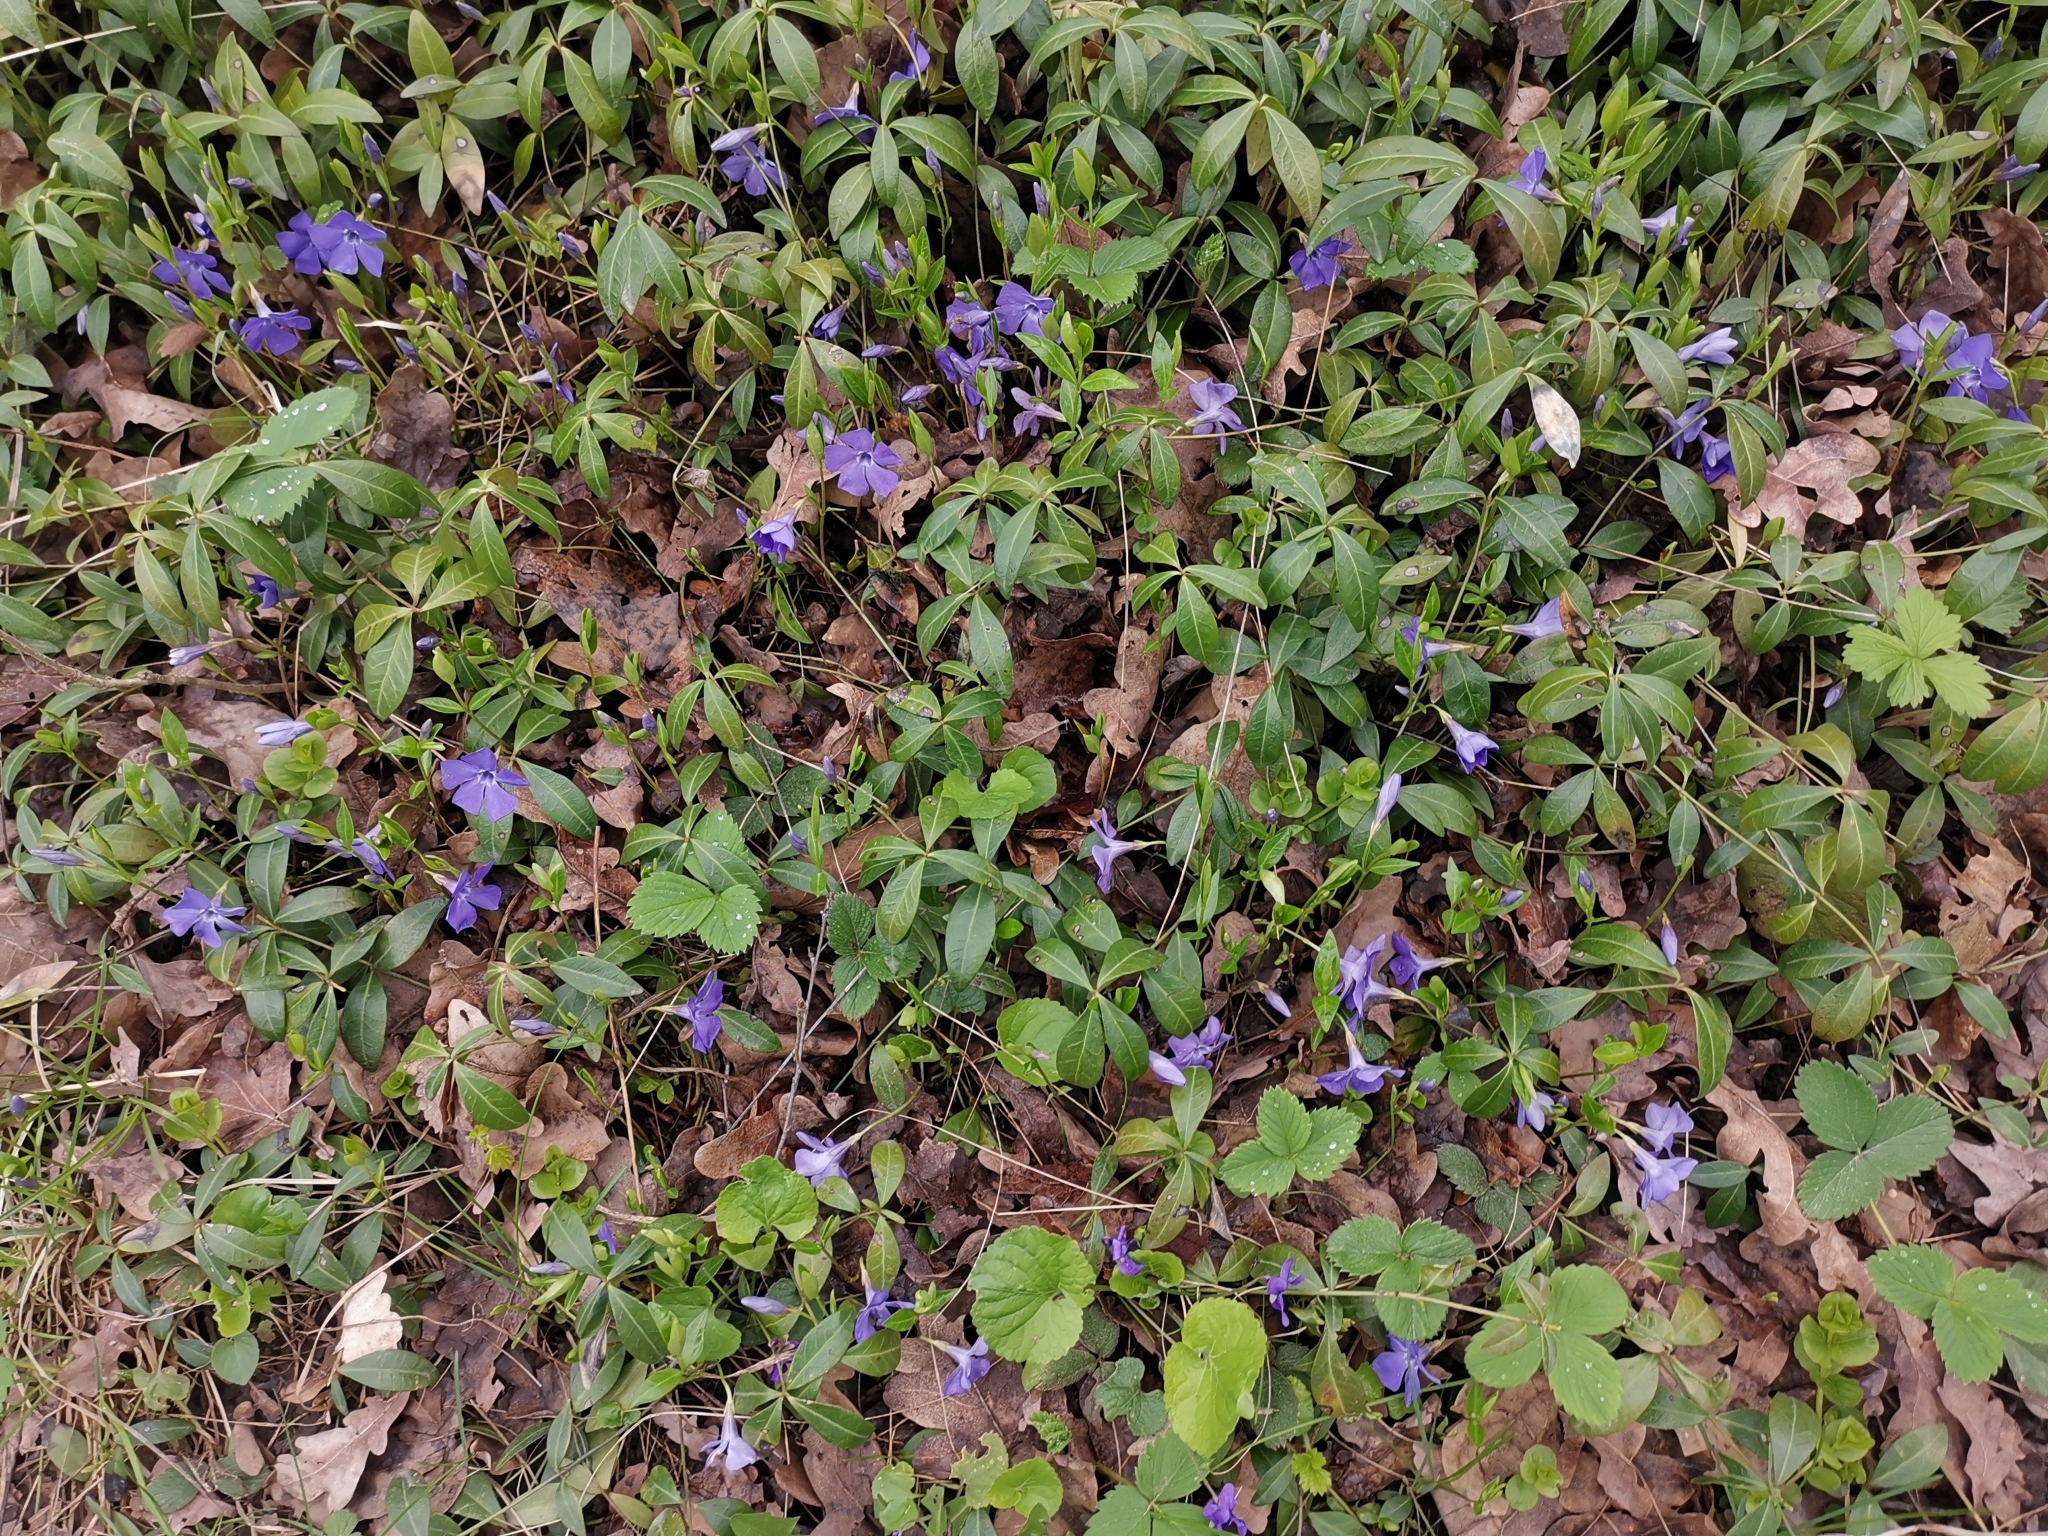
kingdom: Plantae
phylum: Tracheophyta
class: Magnoliopsida
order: Gentianales
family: Apocynaceae
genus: Vinca
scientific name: Vinca minor
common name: Lesser periwinkle
